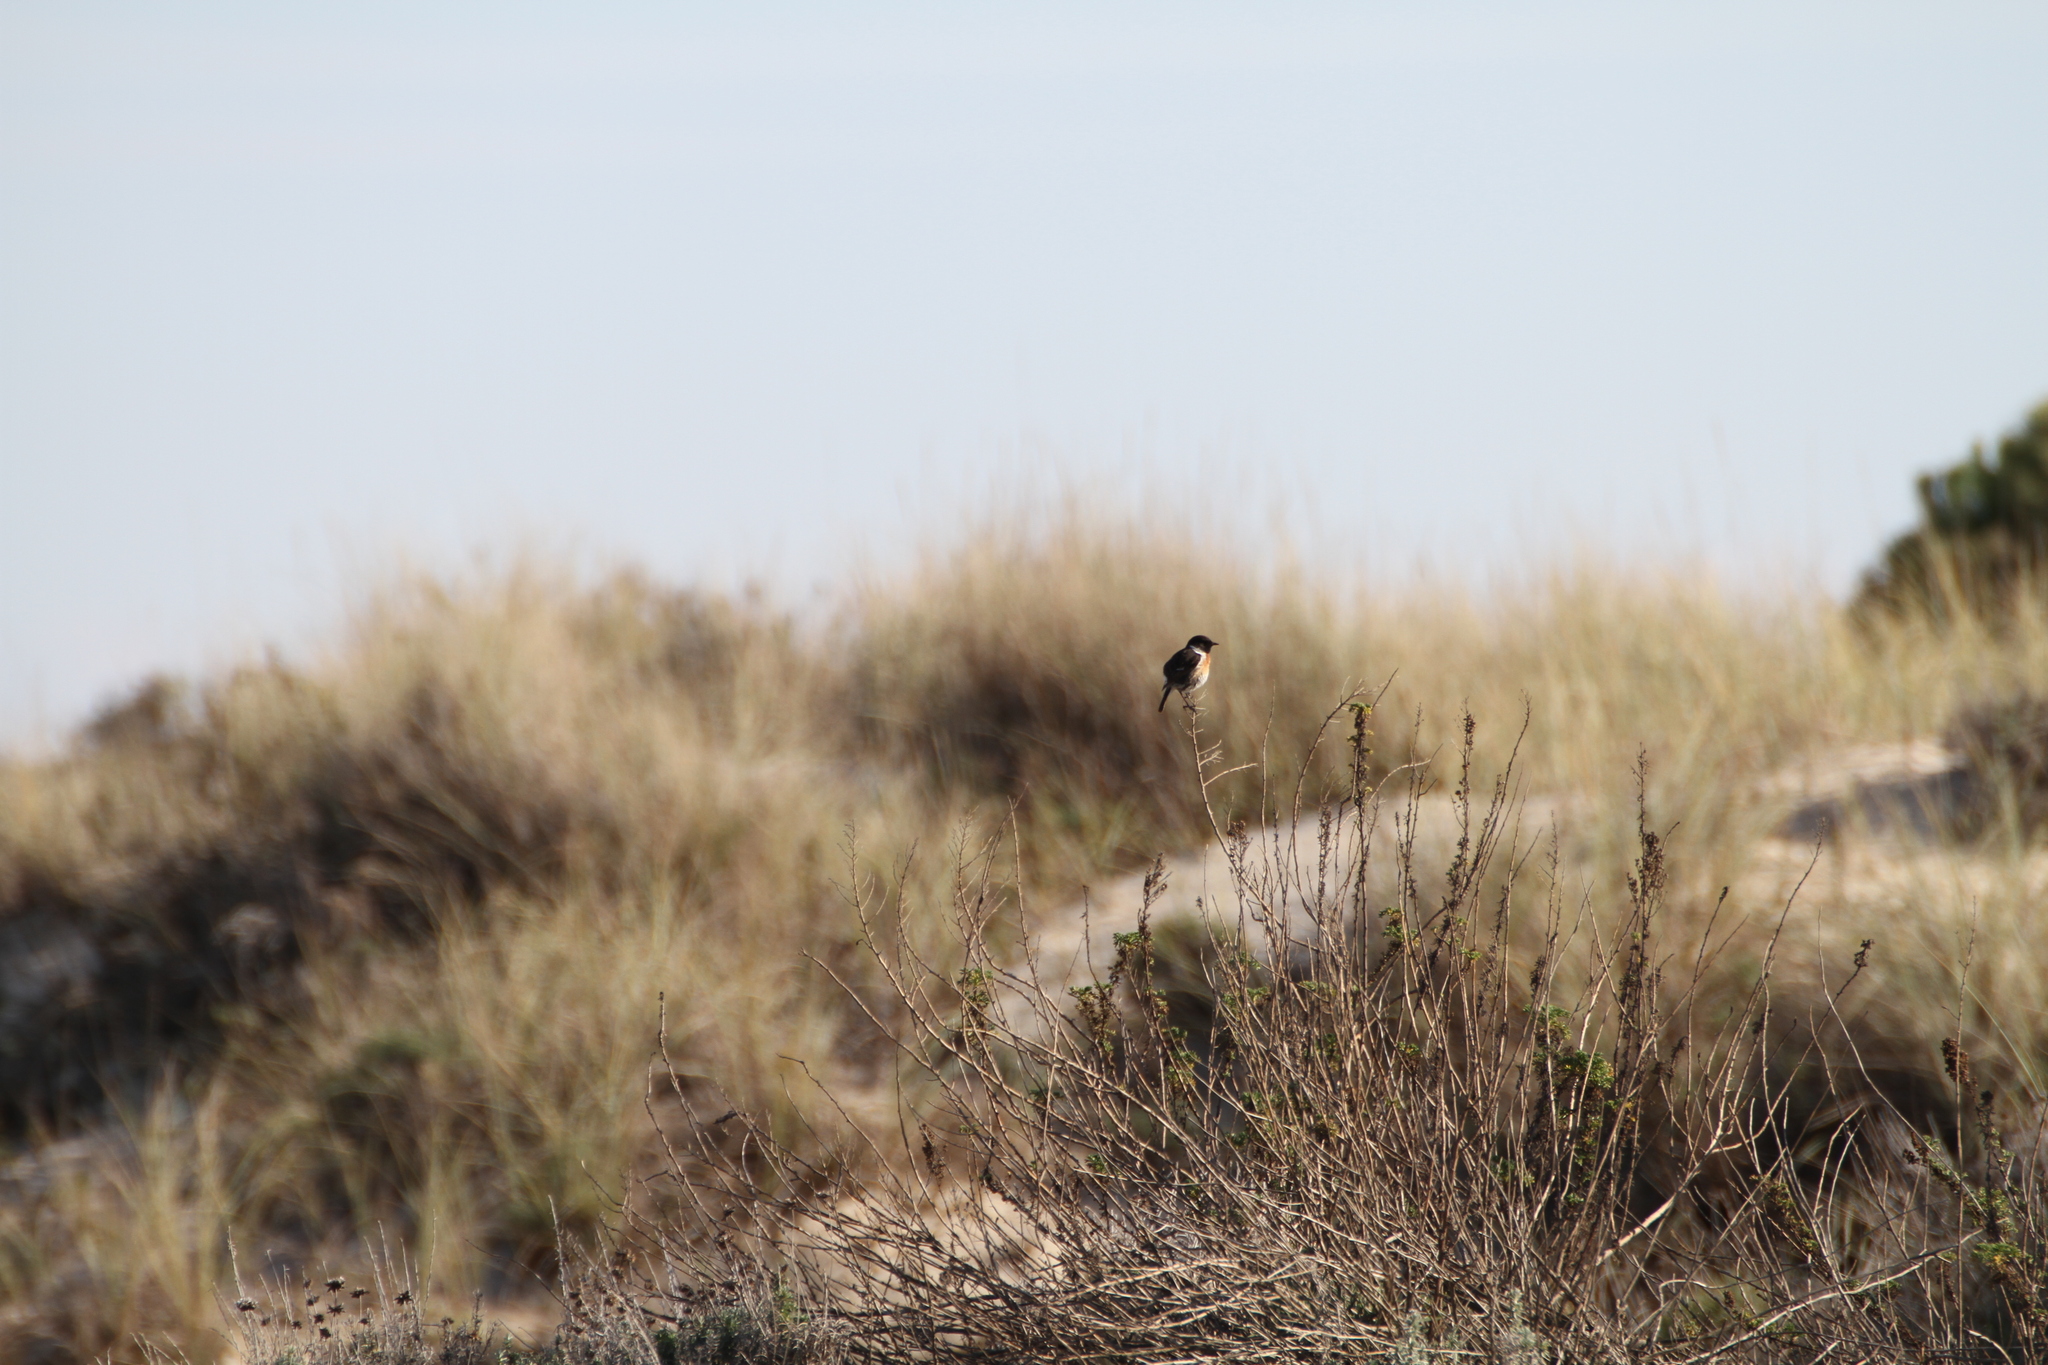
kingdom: Animalia
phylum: Chordata
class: Aves
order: Passeriformes
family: Muscicapidae
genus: Saxicola
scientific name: Saxicola rubicola
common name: European stonechat
